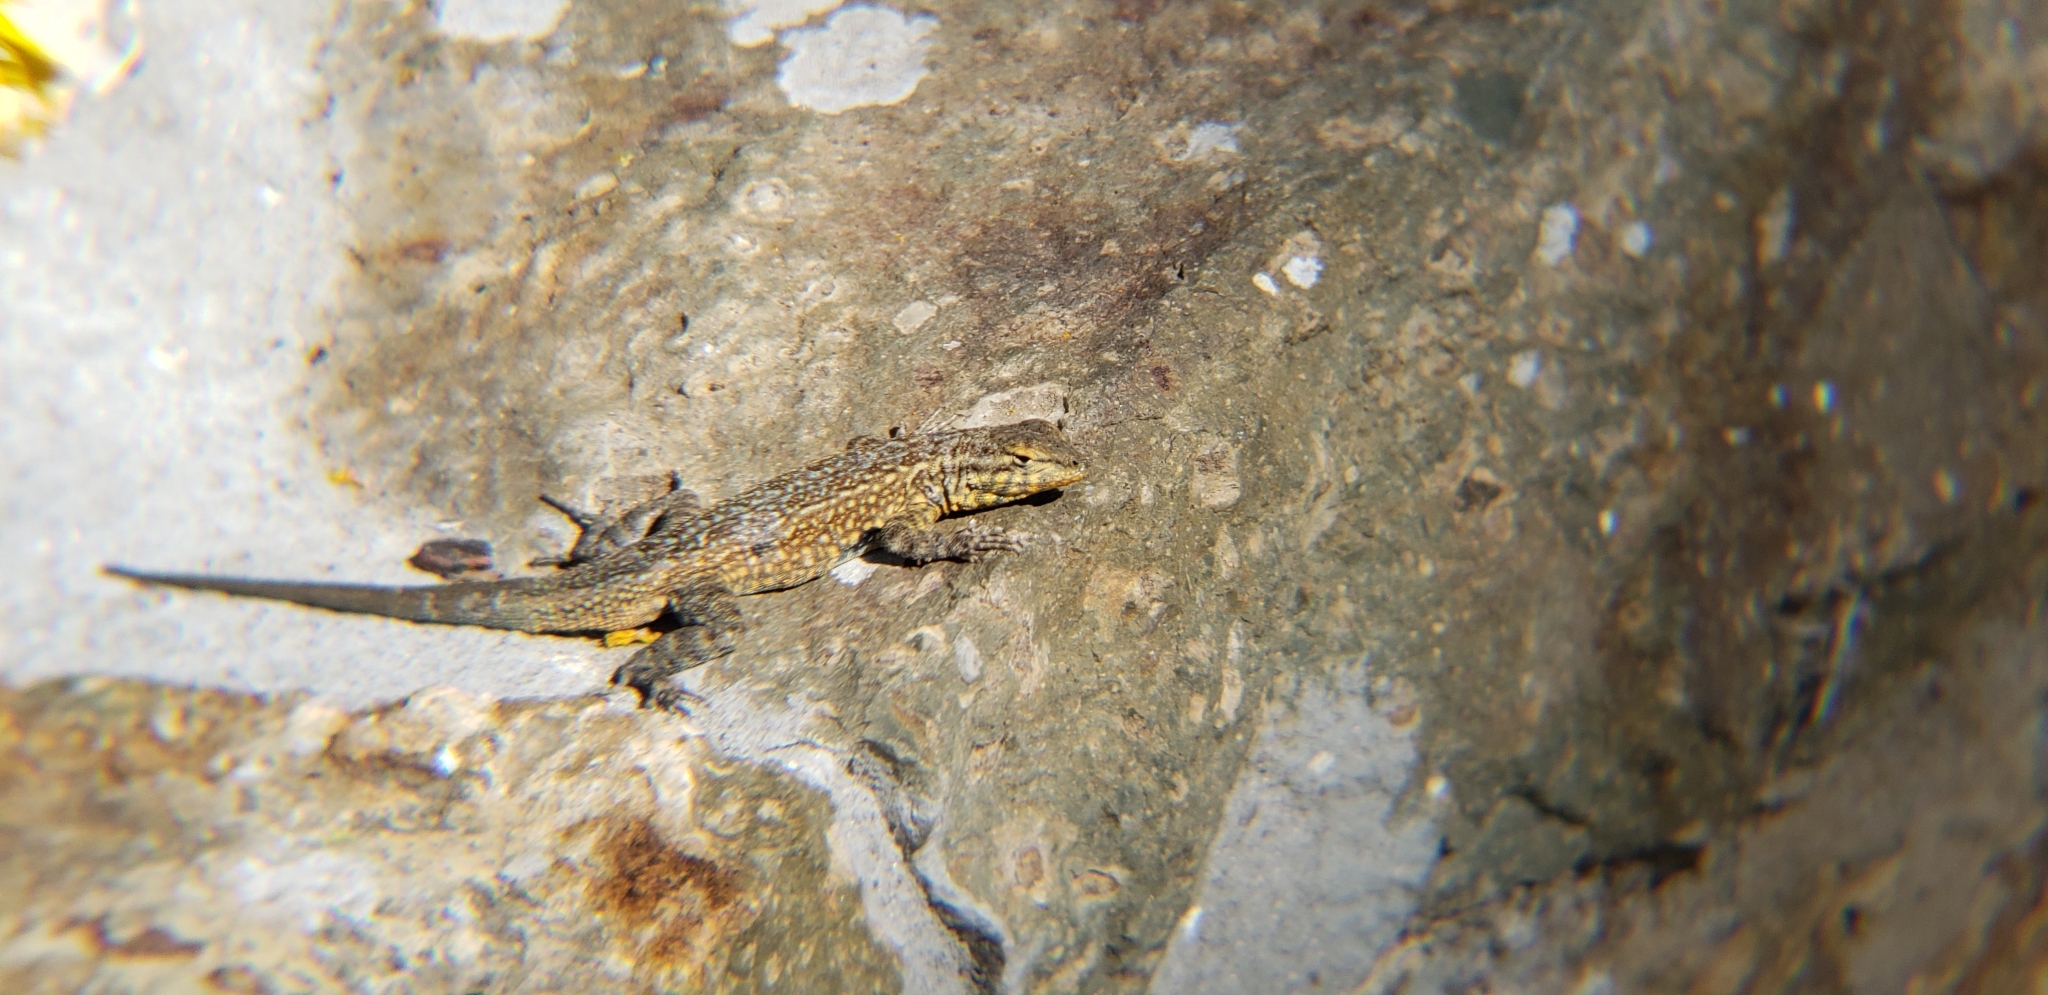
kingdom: Animalia
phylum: Chordata
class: Squamata
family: Phrynosomatidae
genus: Uta
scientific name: Uta stansburiana
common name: Side-blotched lizard
